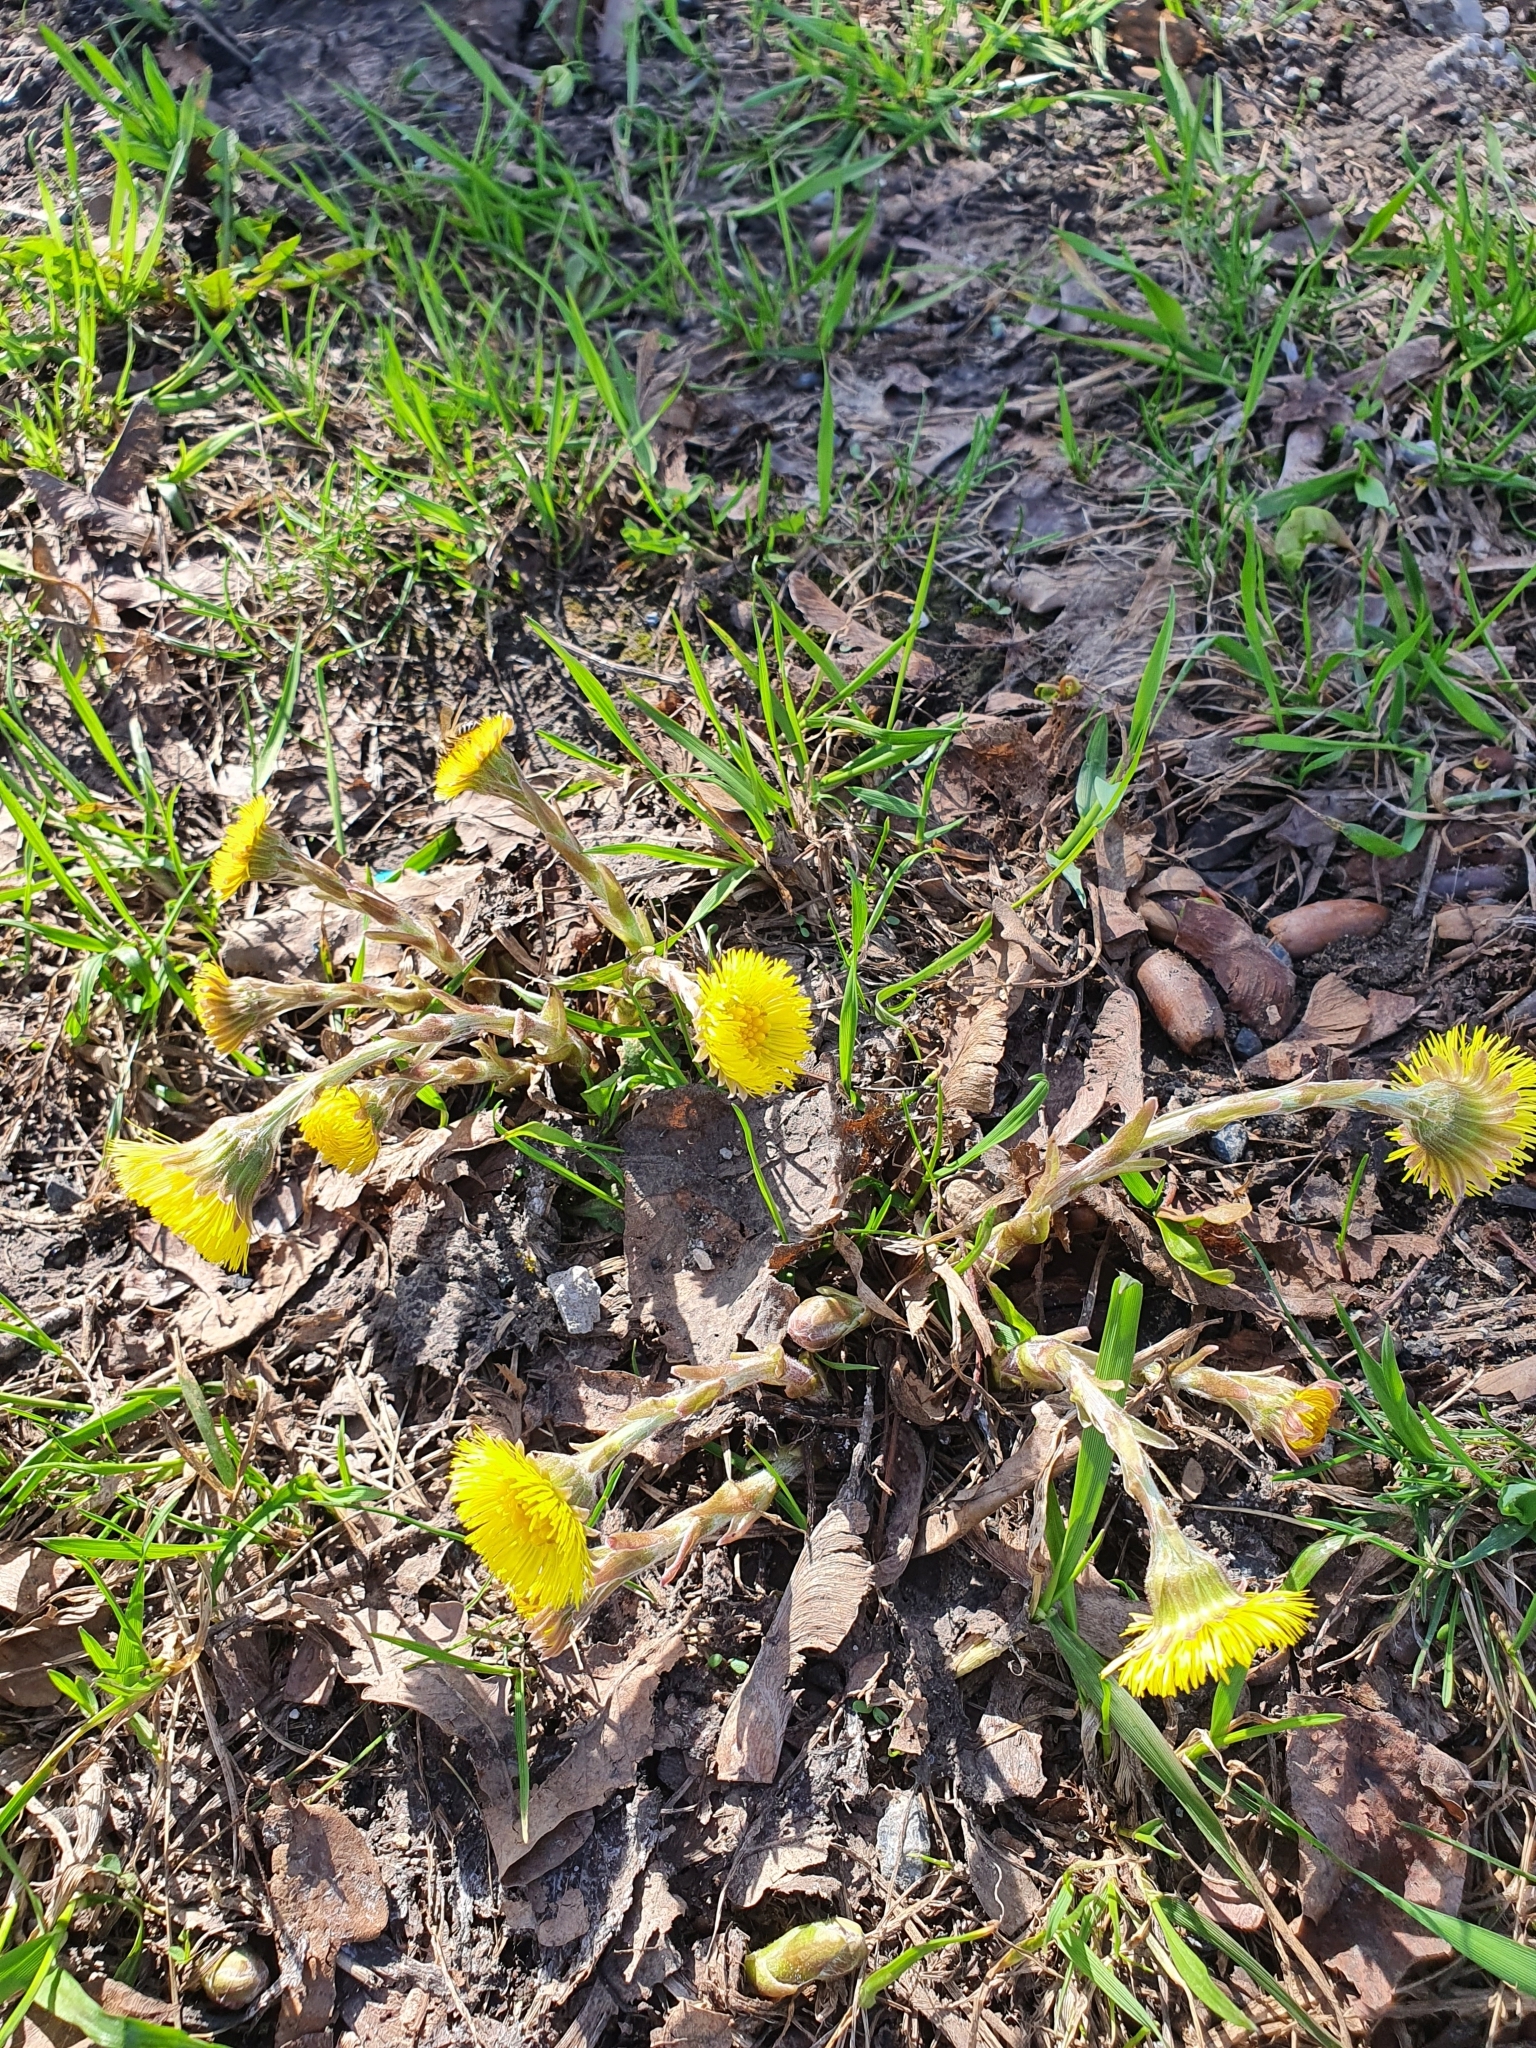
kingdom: Plantae
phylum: Tracheophyta
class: Magnoliopsida
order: Asterales
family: Asteraceae
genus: Tussilago
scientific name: Tussilago farfara
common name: Coltsfoot
